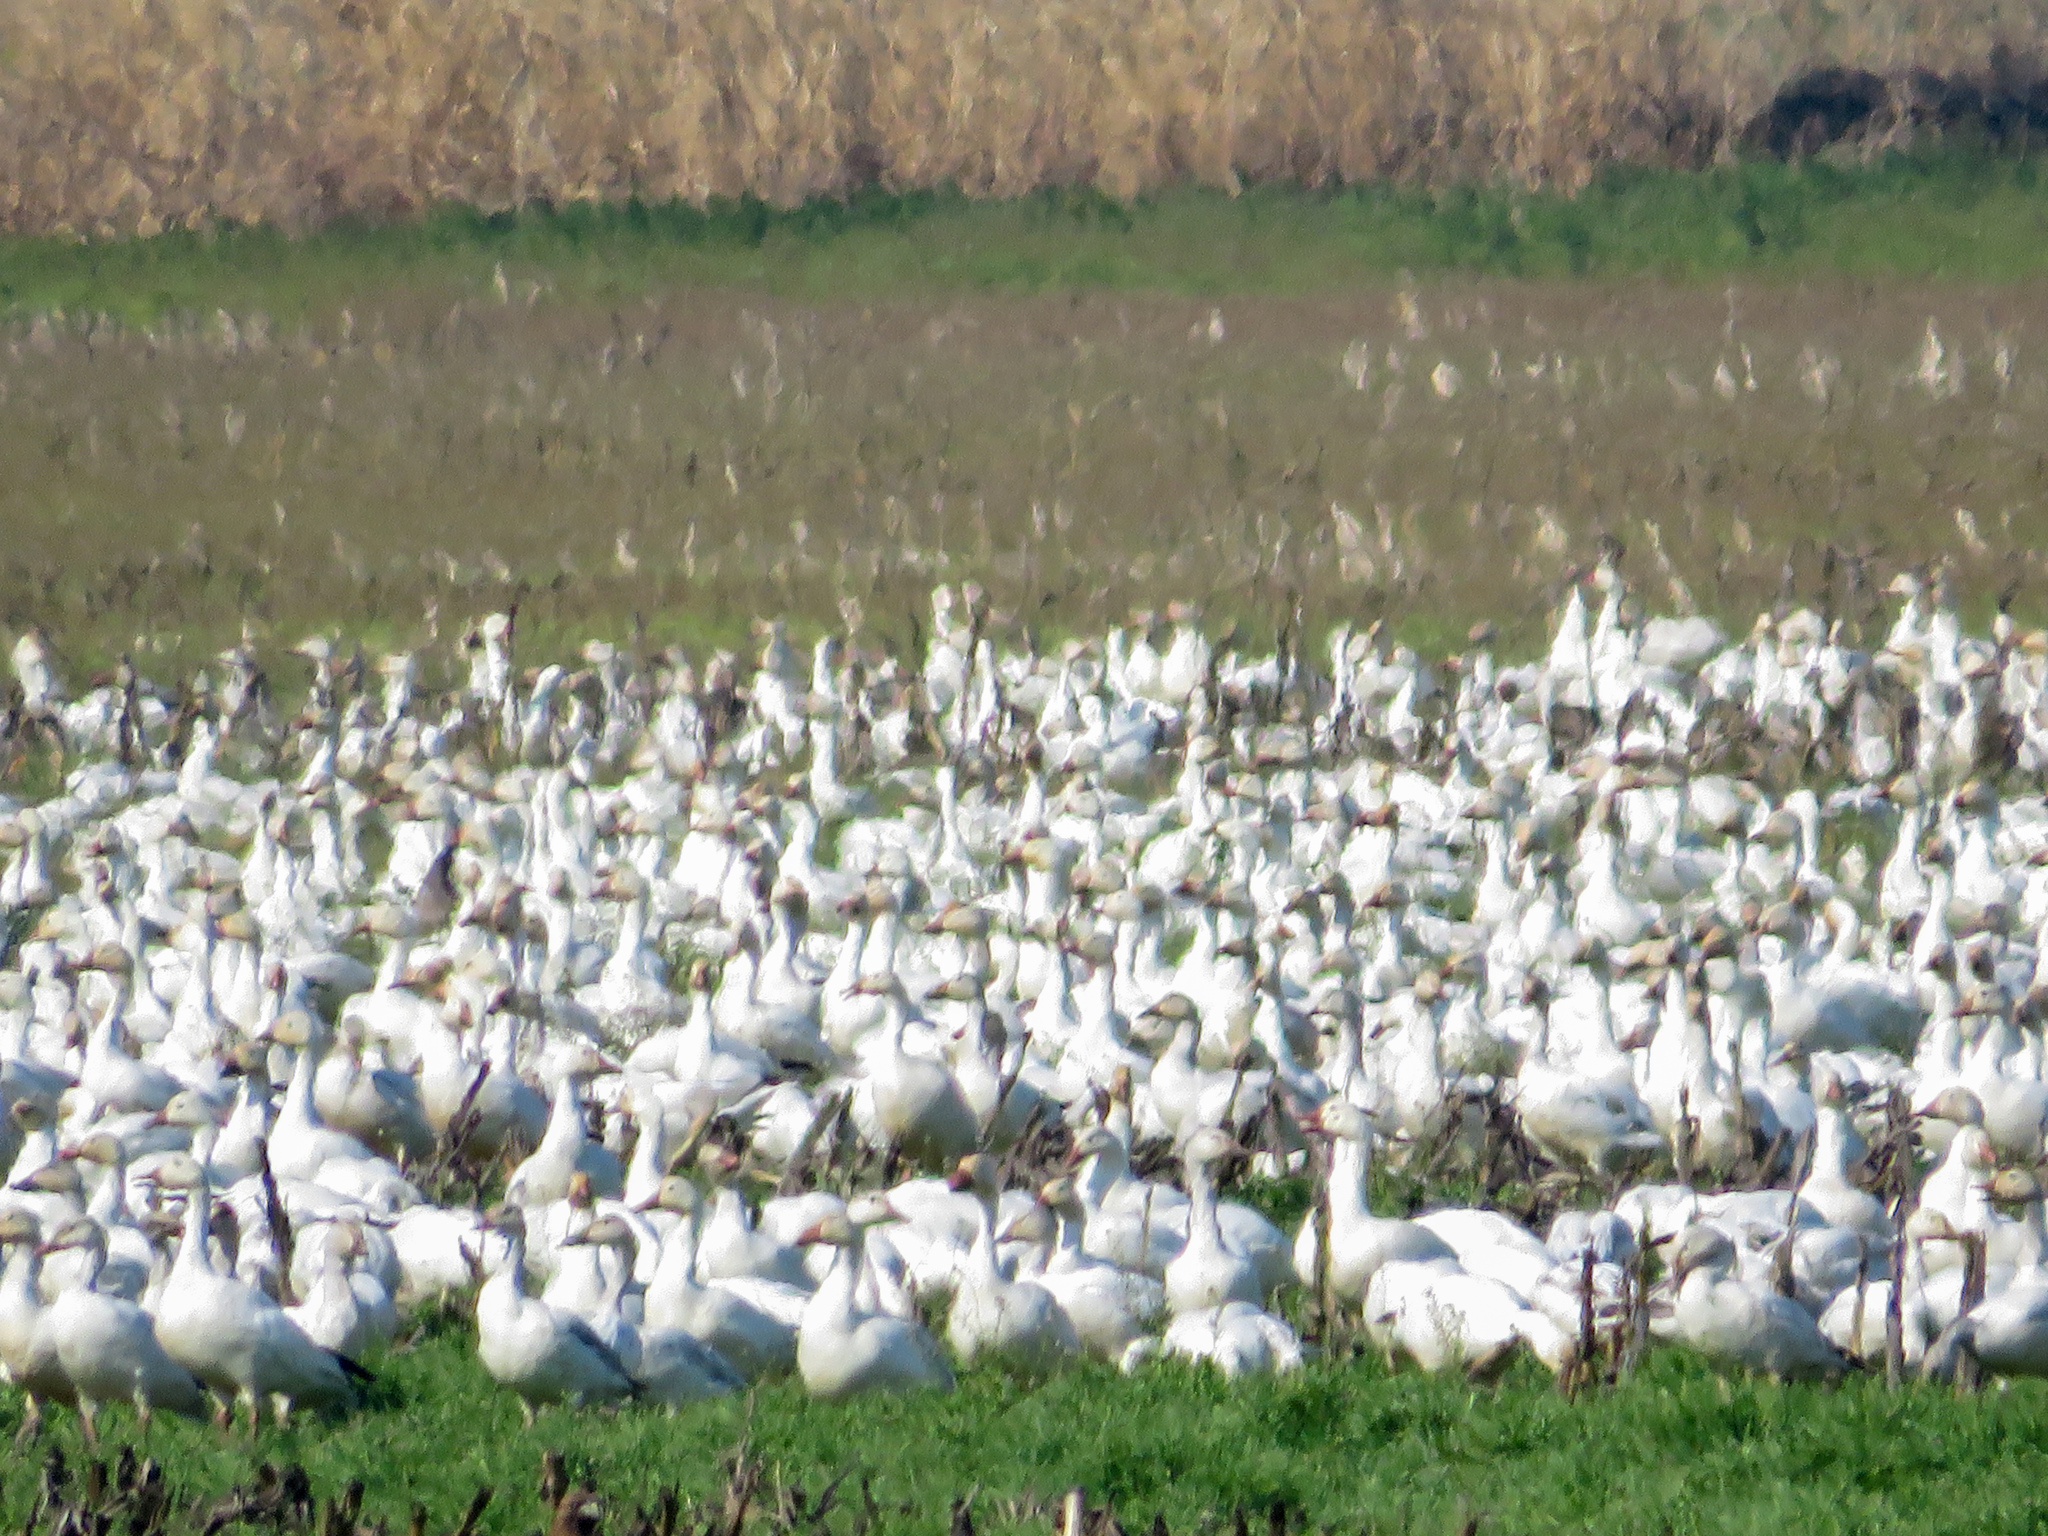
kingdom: Animalia
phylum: Chordata
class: Aves
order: Anseriformes
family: Anatidae
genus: Anser
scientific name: Anser caerulescens
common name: Snow goose
